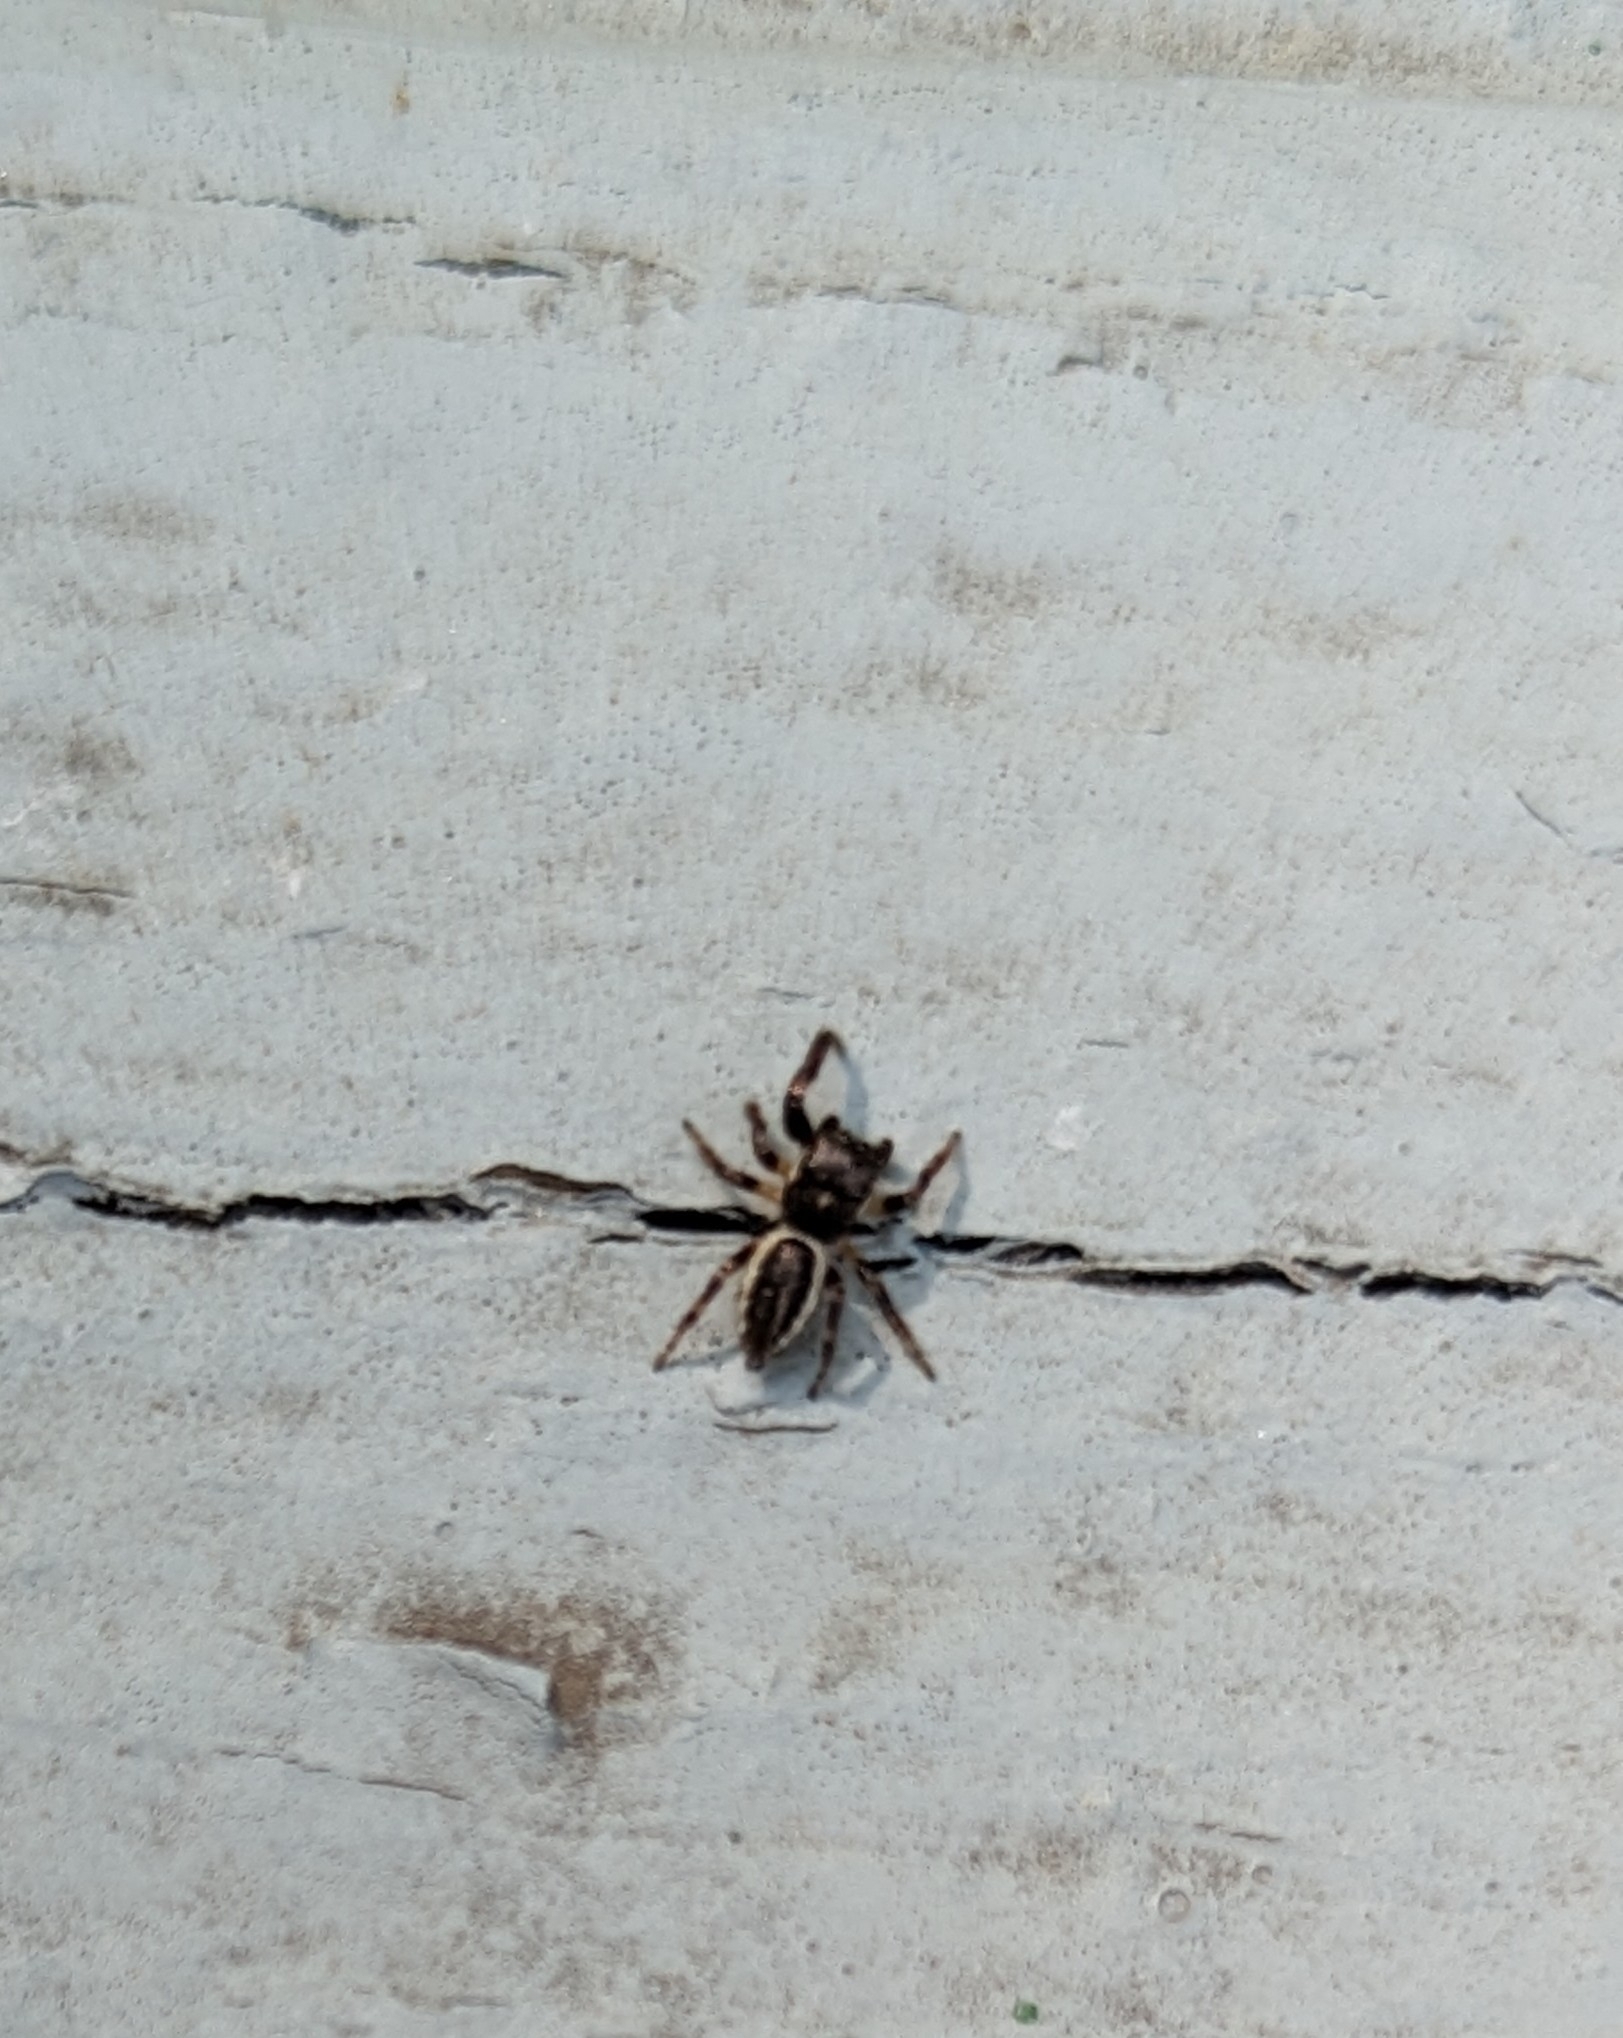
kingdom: Animalia
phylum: Arthropoda
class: Arachnida
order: Araneae
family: Salticidae
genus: Eris
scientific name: Eris militaris
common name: Bronze jumper
